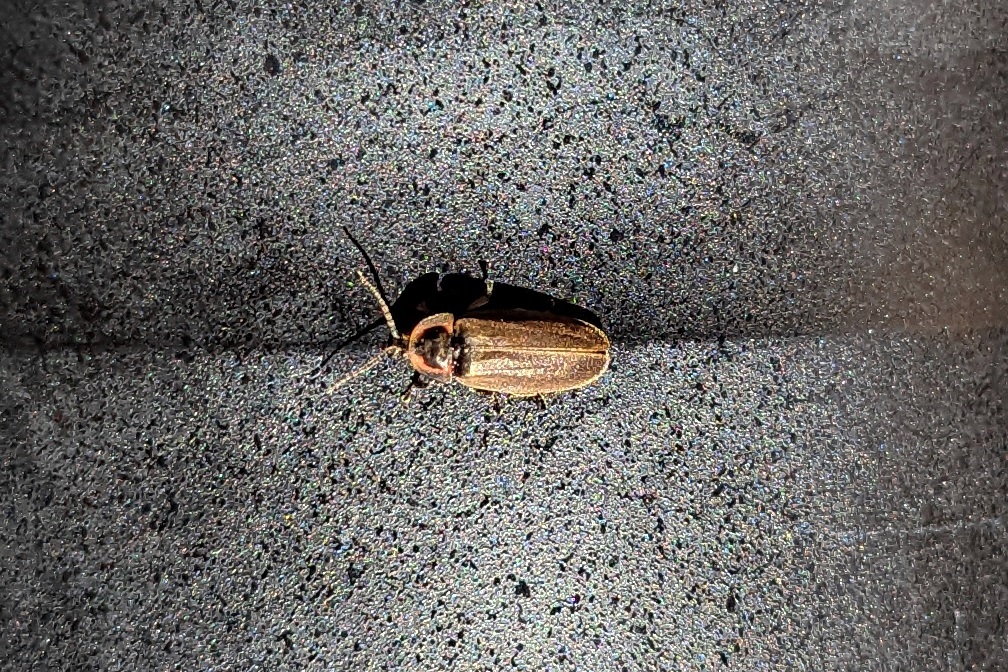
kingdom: Animalia
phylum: Arthropoda
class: Insecta
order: Coleoptera
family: Lampyridae
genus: Photinus
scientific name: Photinus corrusca
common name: Winter firefly
